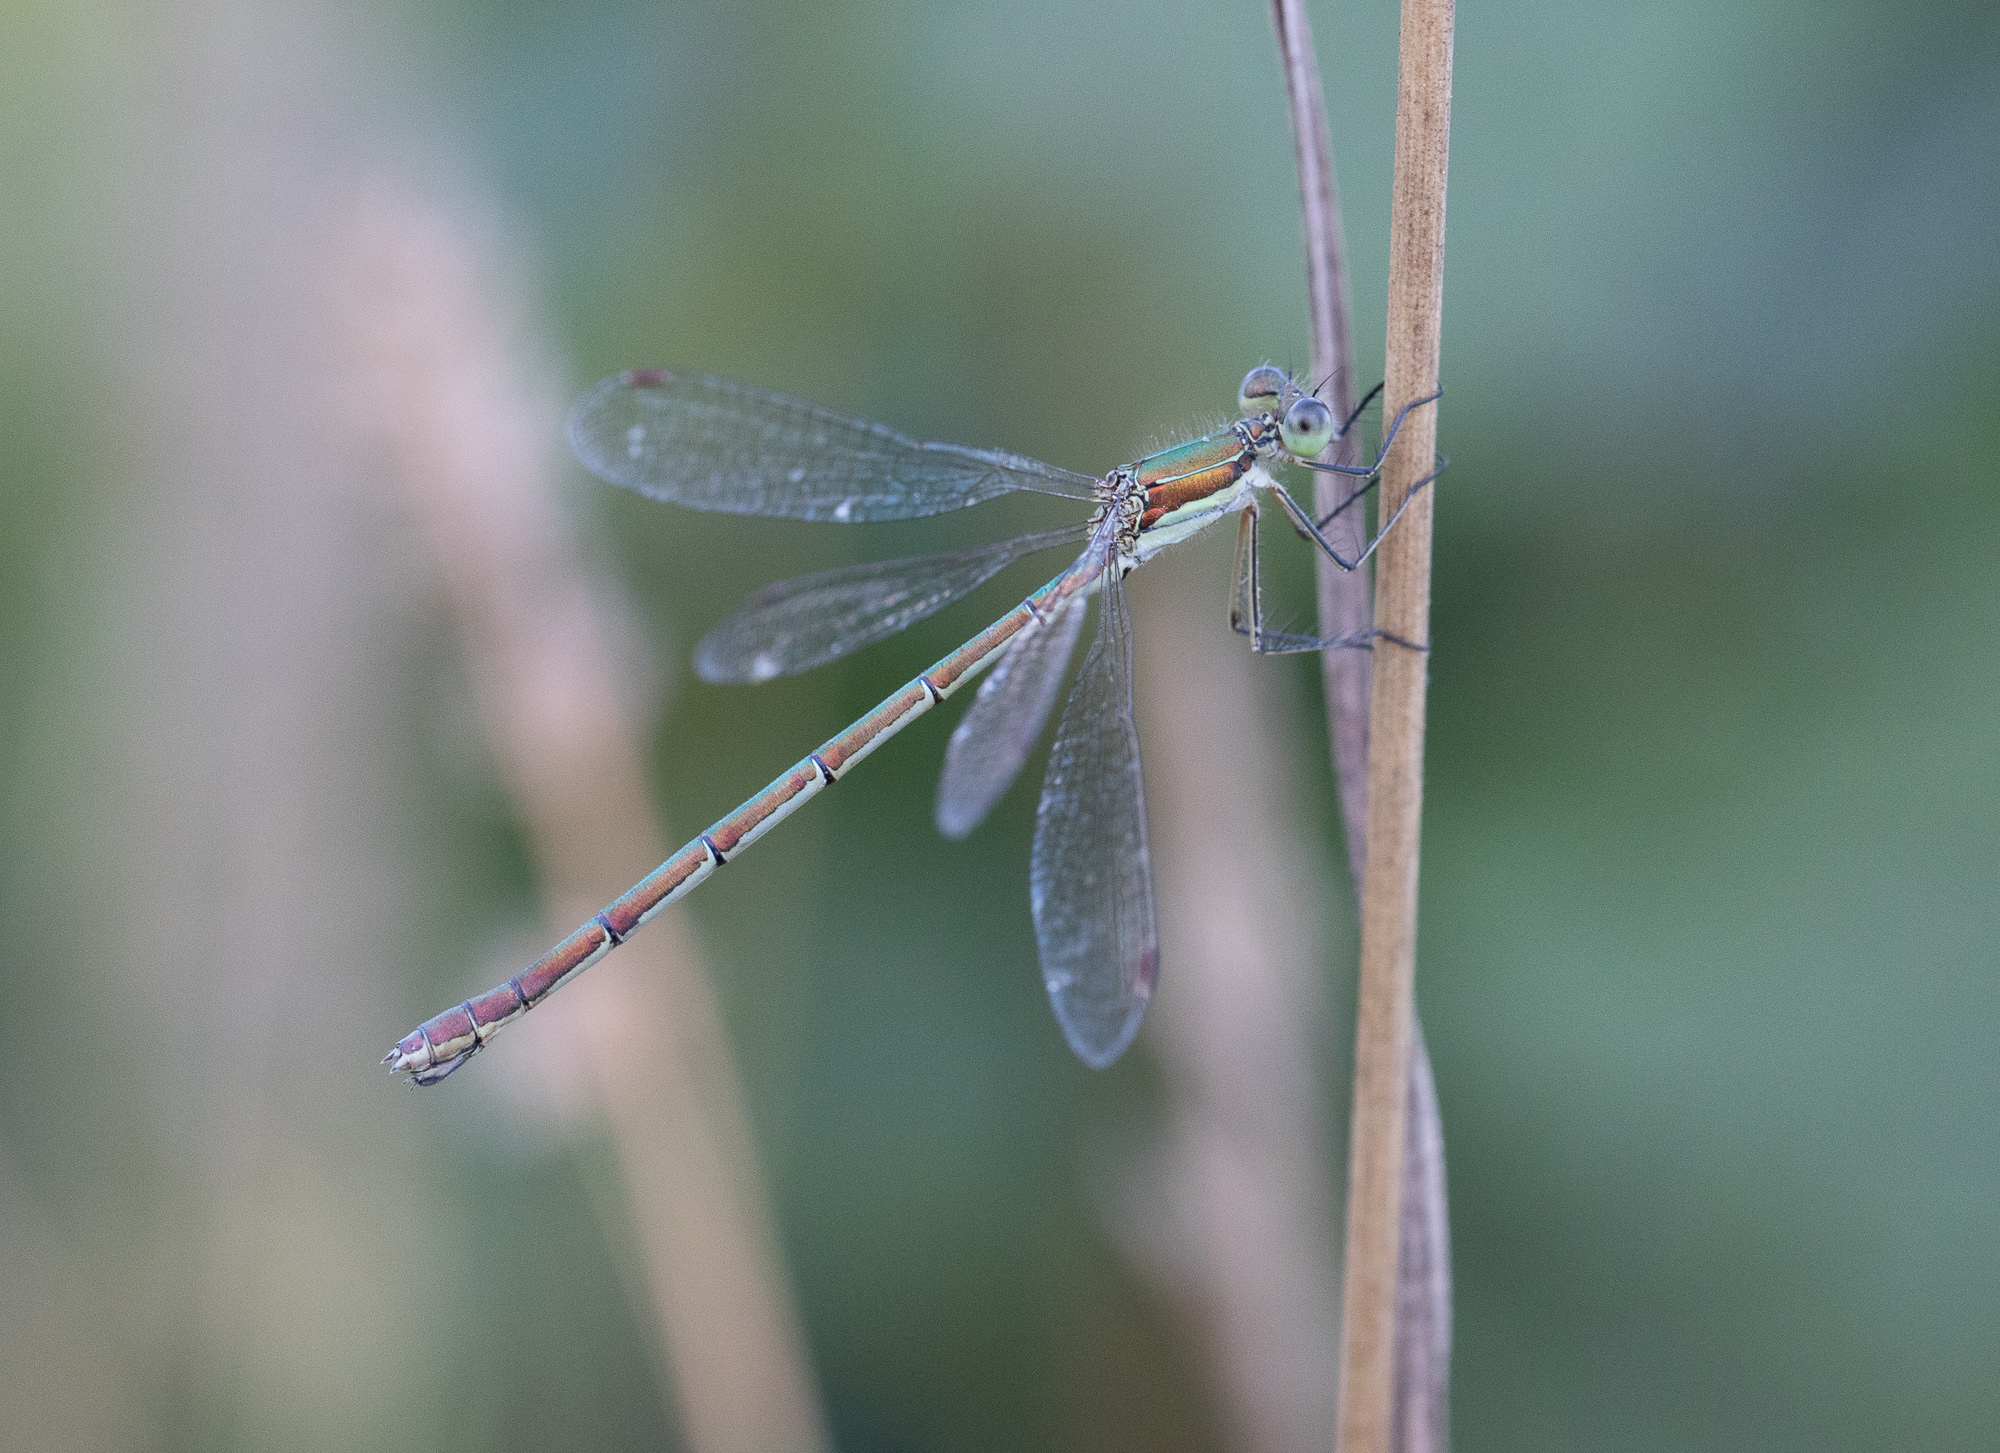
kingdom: Animalia
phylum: Arthropoda
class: Insecta
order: Odonata
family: Lestidae
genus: Lestes
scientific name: Lestes virens
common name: Small emerald spreadwing
